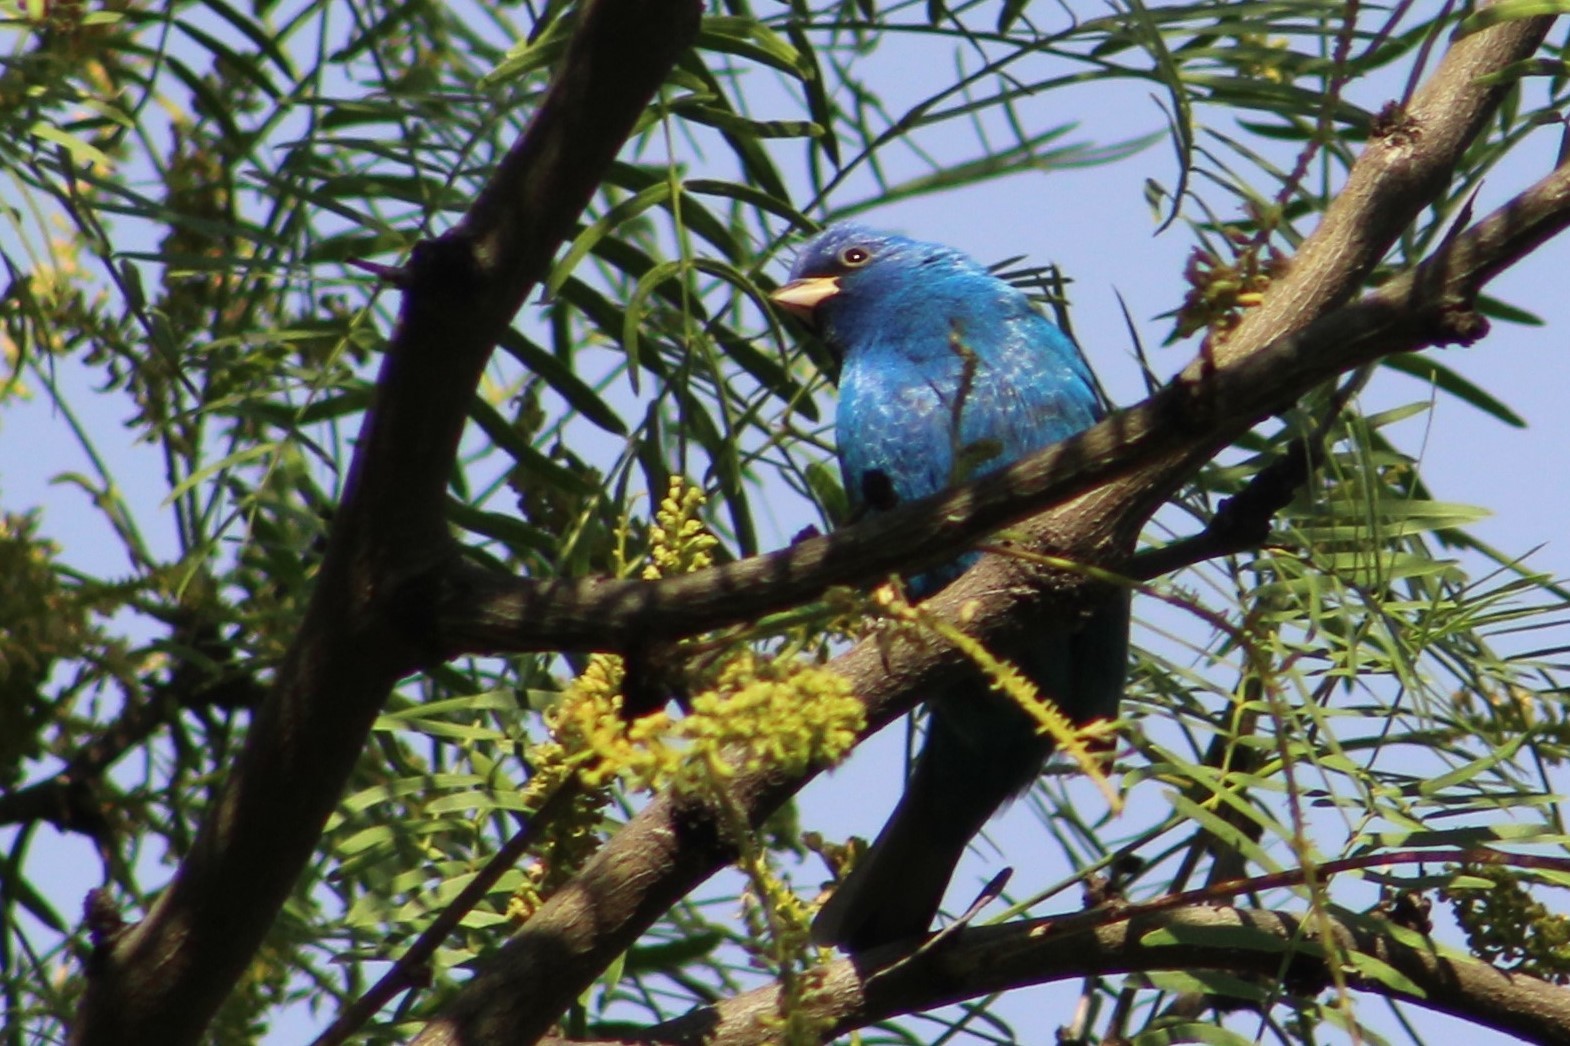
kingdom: Animalia
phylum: Chordata
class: Aves
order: Passeriformes
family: Cardinalidae
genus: Passerina
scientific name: Passerina cyanea
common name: Indigo bunting
